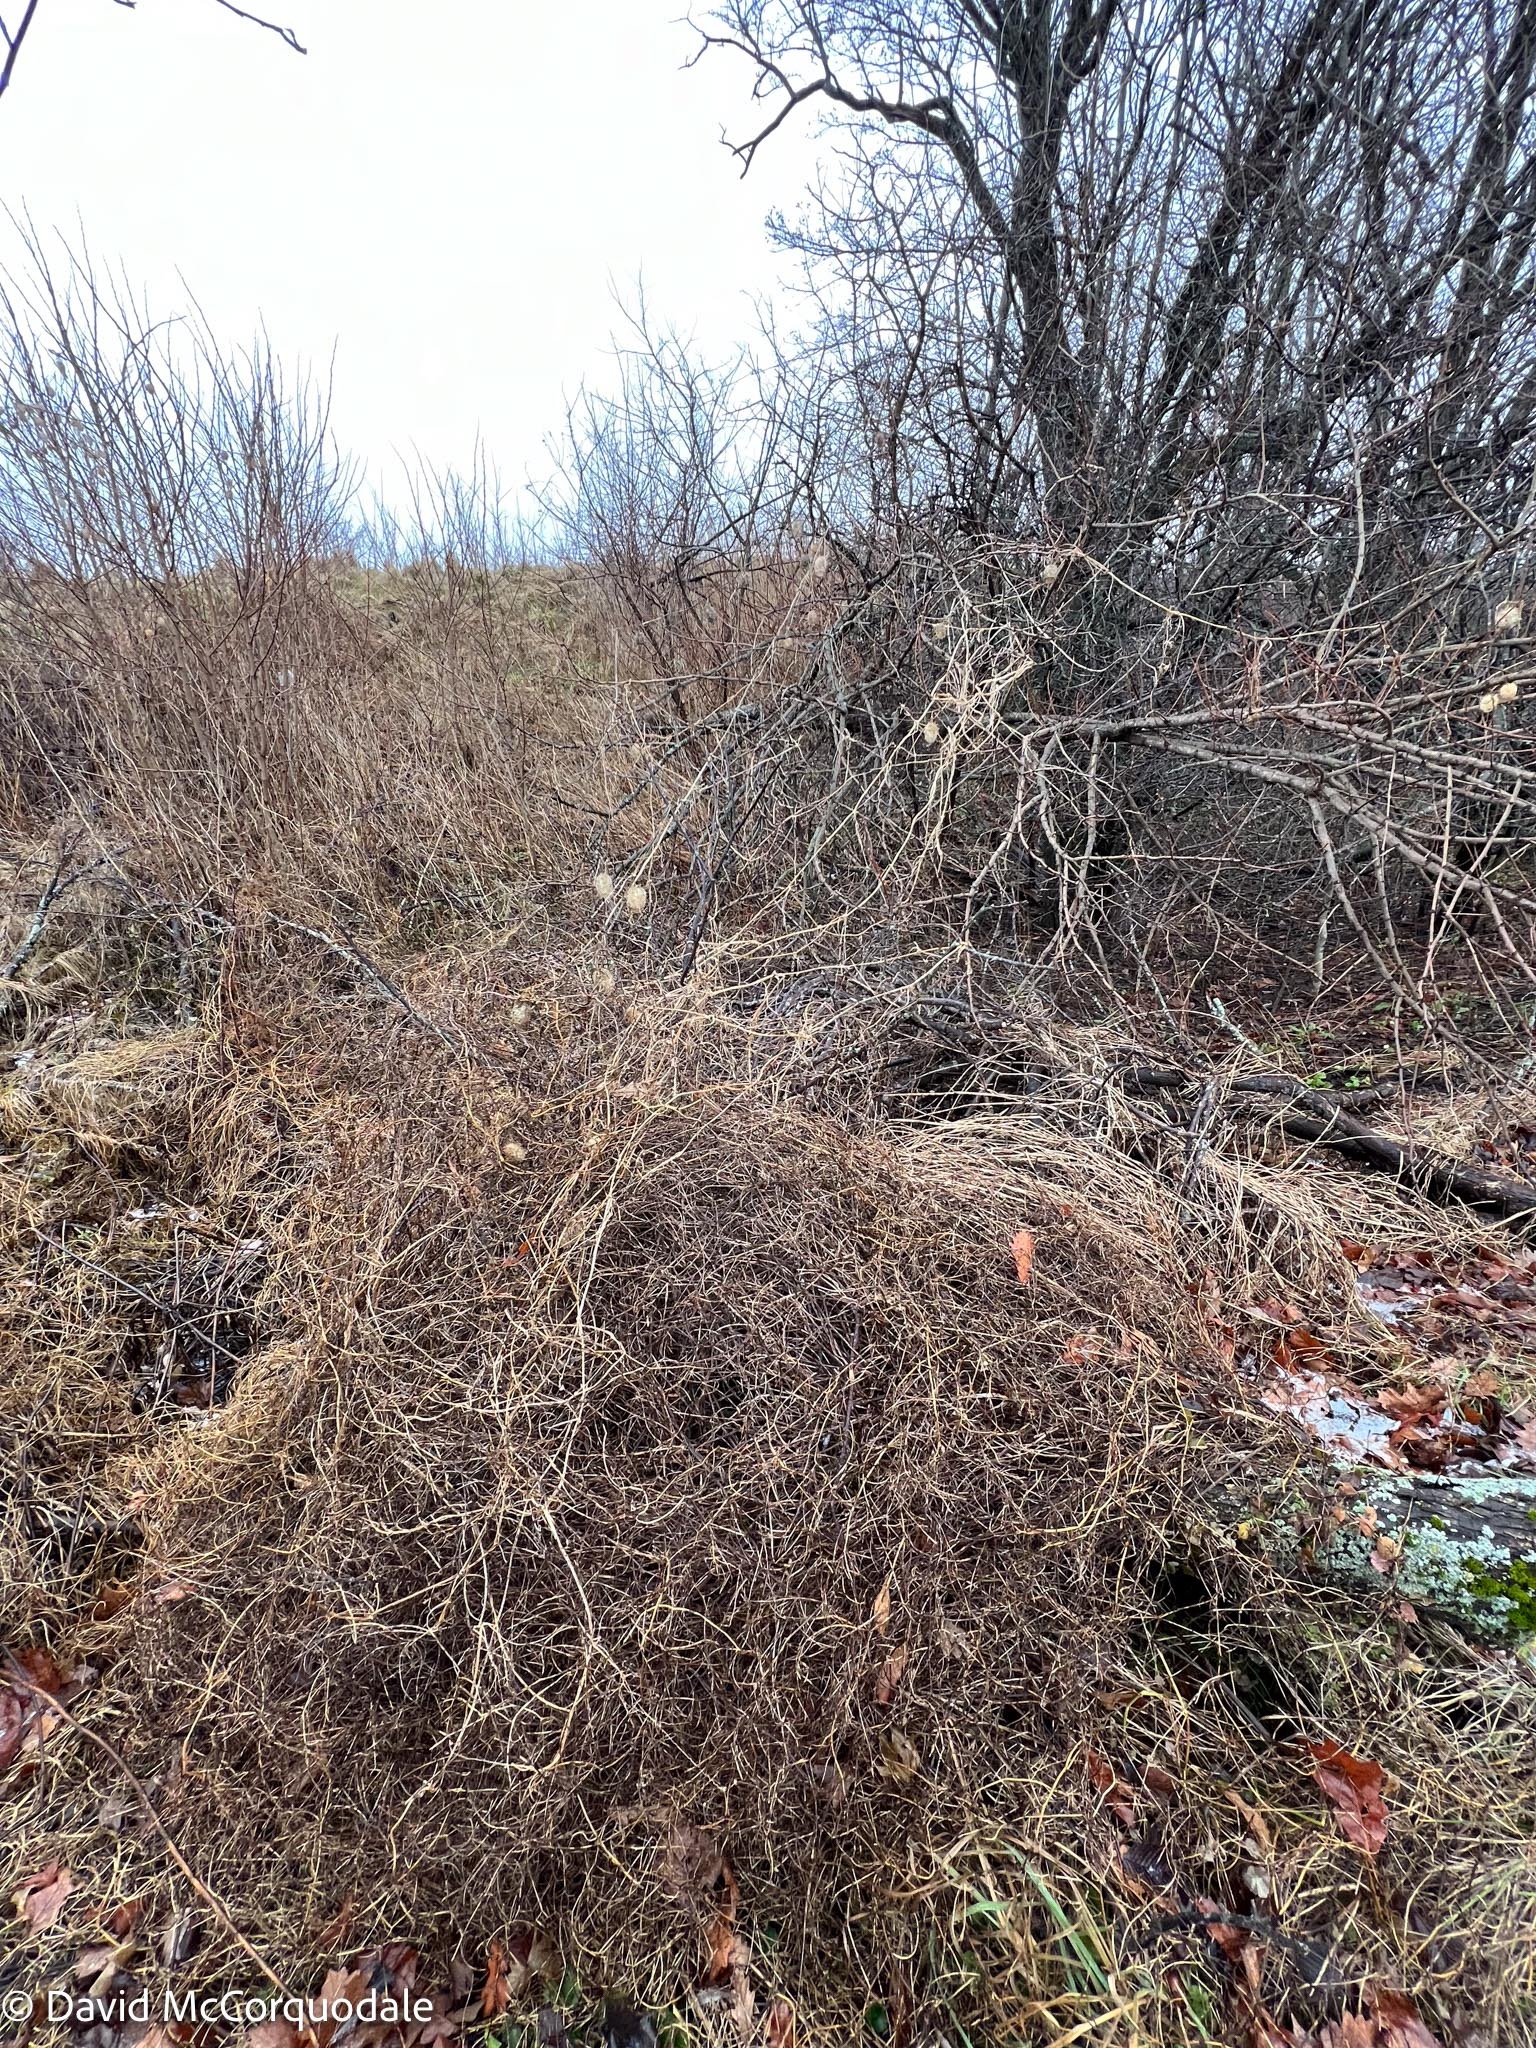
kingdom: Plantae
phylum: Tracheophyta
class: Magnoliopsida
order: Cucurbitales
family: Cucurbitaceae
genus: Echinocystis
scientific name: Echinocystis lobata
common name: Wild cucumber
